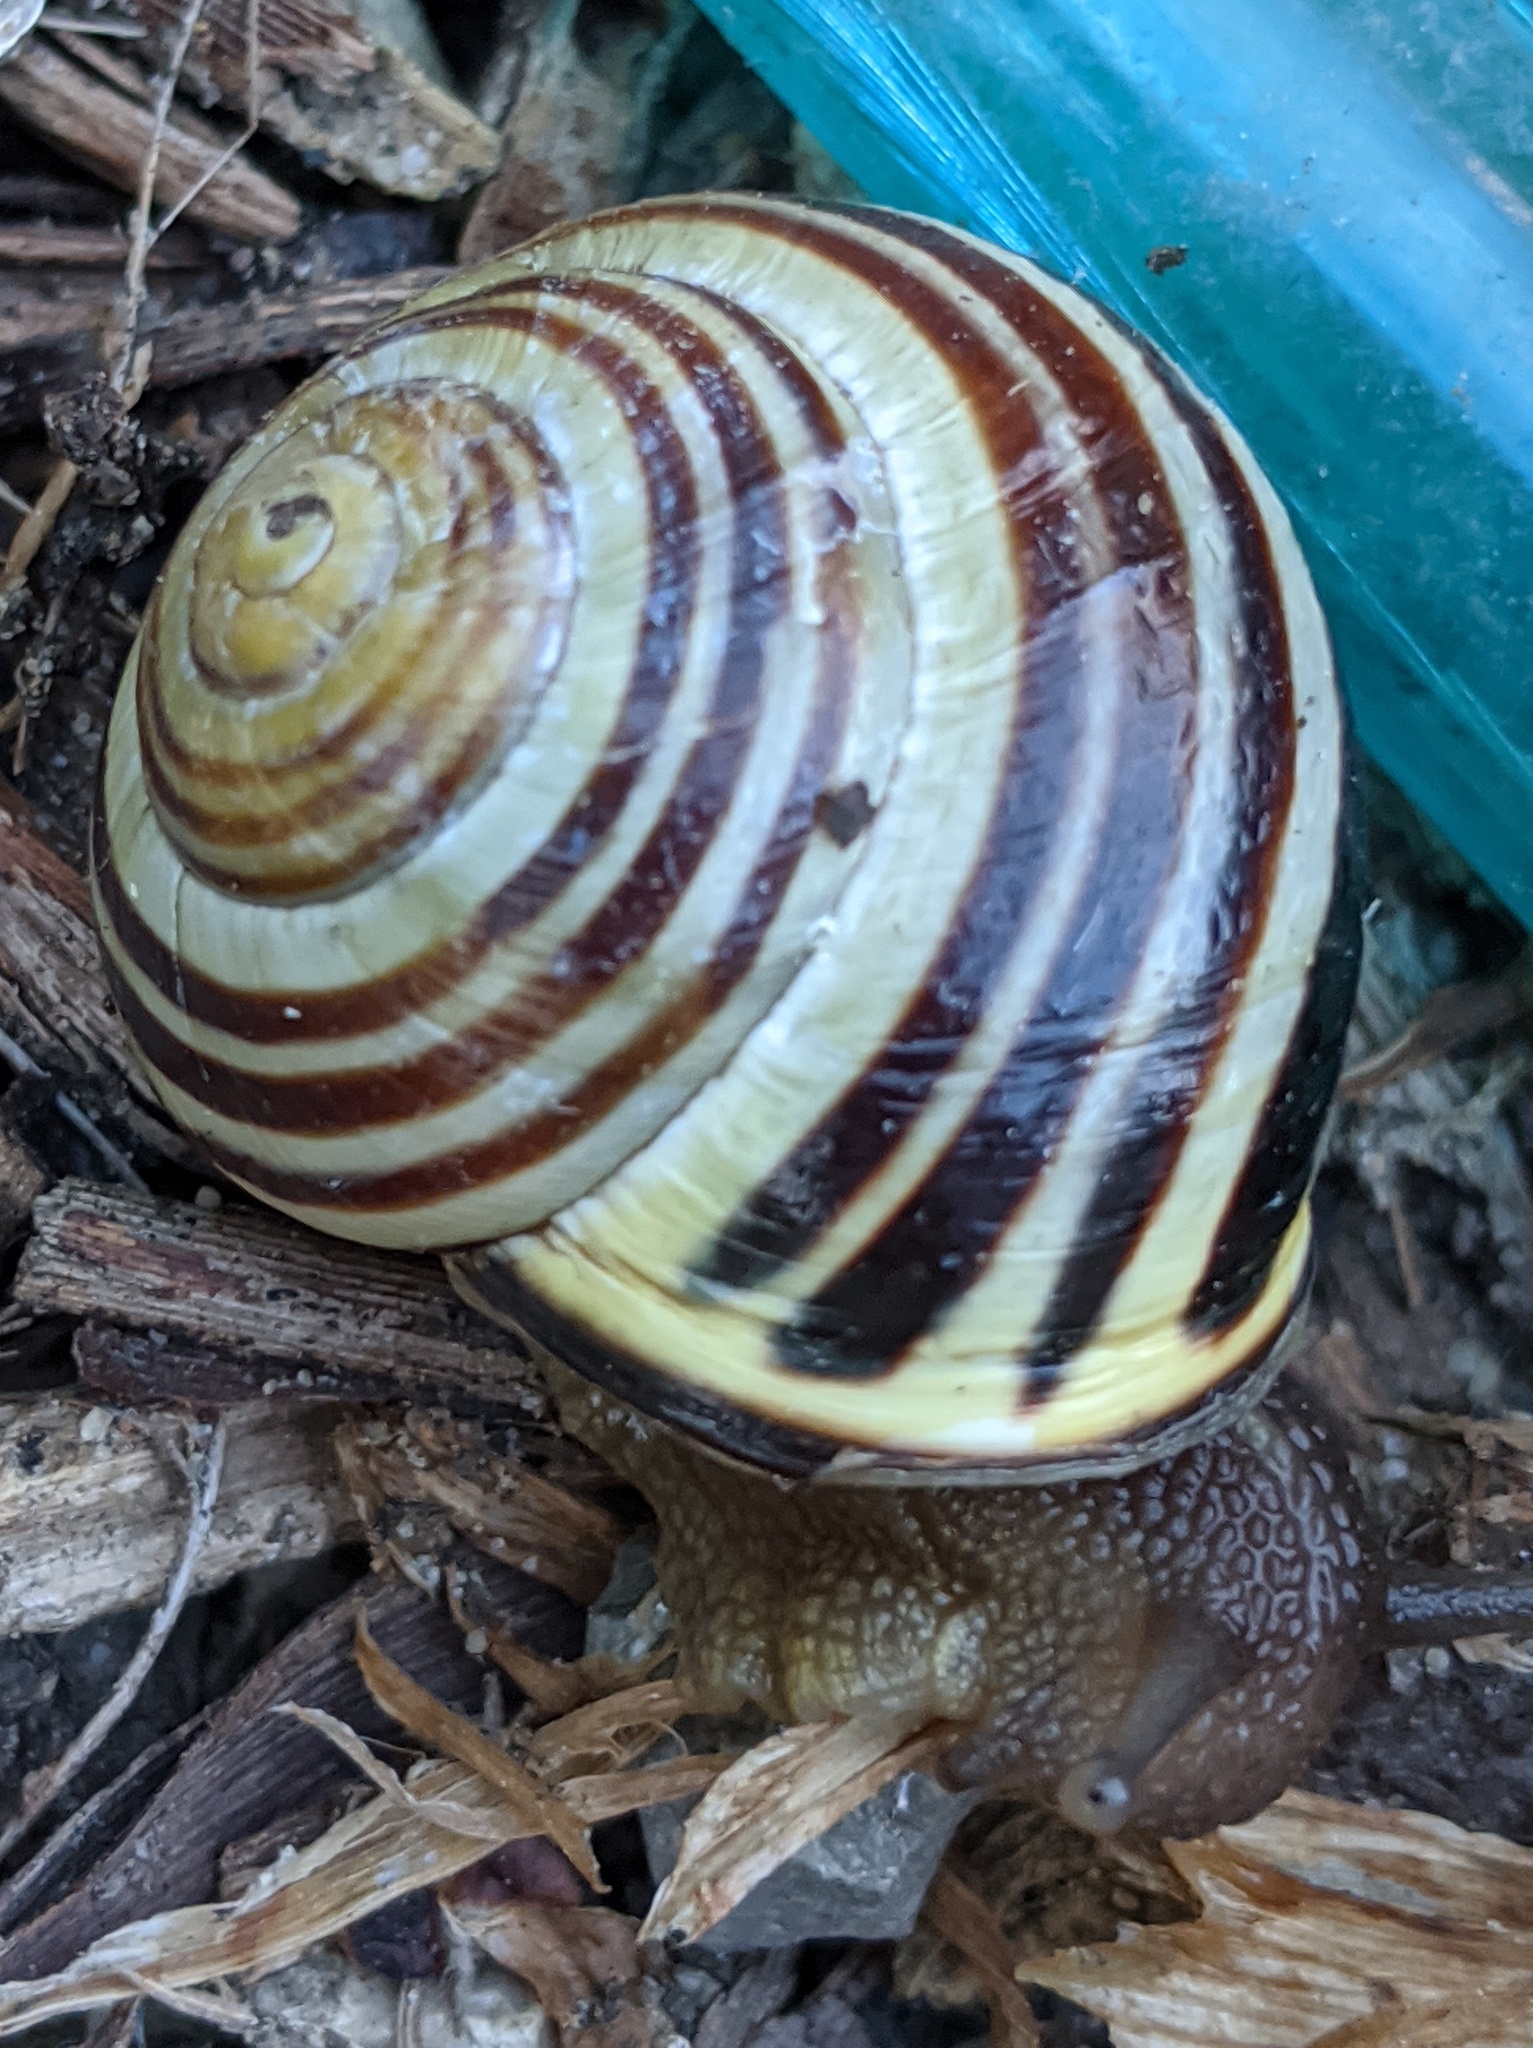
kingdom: Animalia
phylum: Mollusca
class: Gastropoda
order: Stylommatophora
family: Helicidae
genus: Cepaea
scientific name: Cepaea nemoralis
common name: Grovesnail
